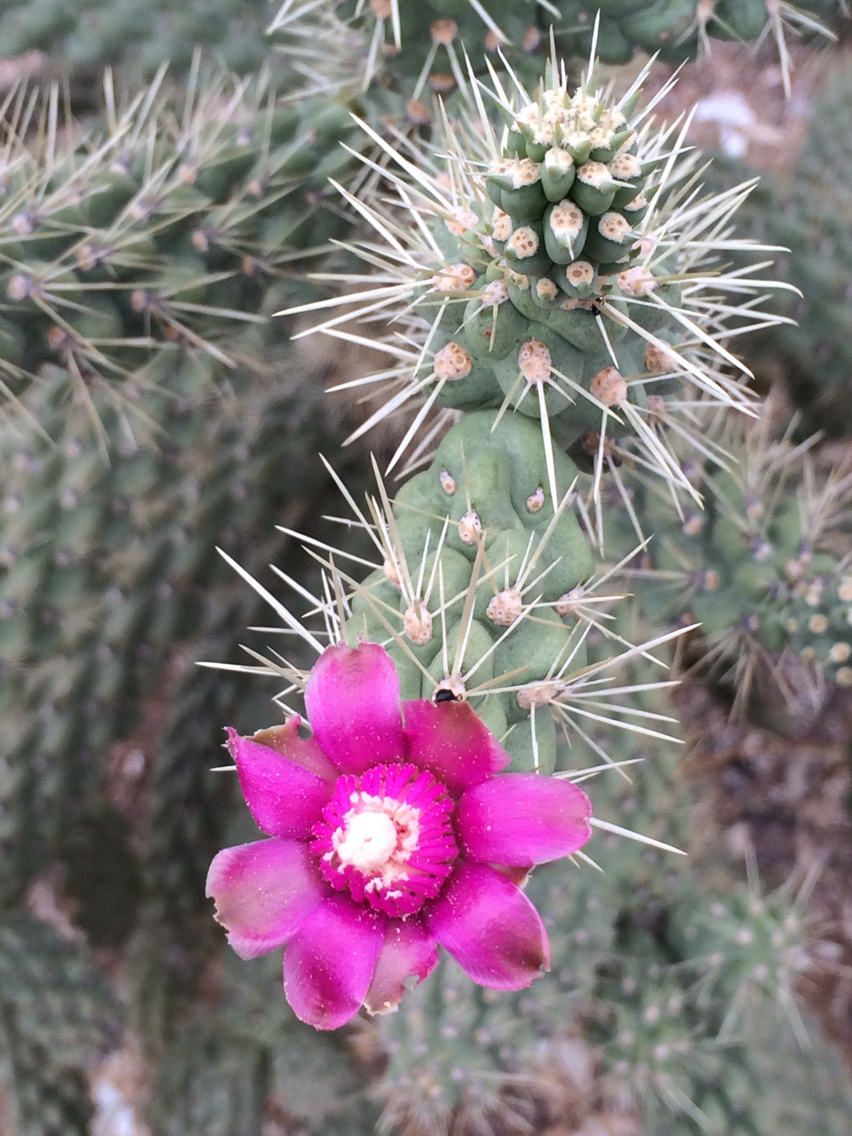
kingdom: Plantae
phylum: Tracheophyta
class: Magnoliopsida
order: Caryophyllales
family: Cactaceae
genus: Cylindropuntia
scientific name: Cylindropuntia fulgida
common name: Jumping cholla
